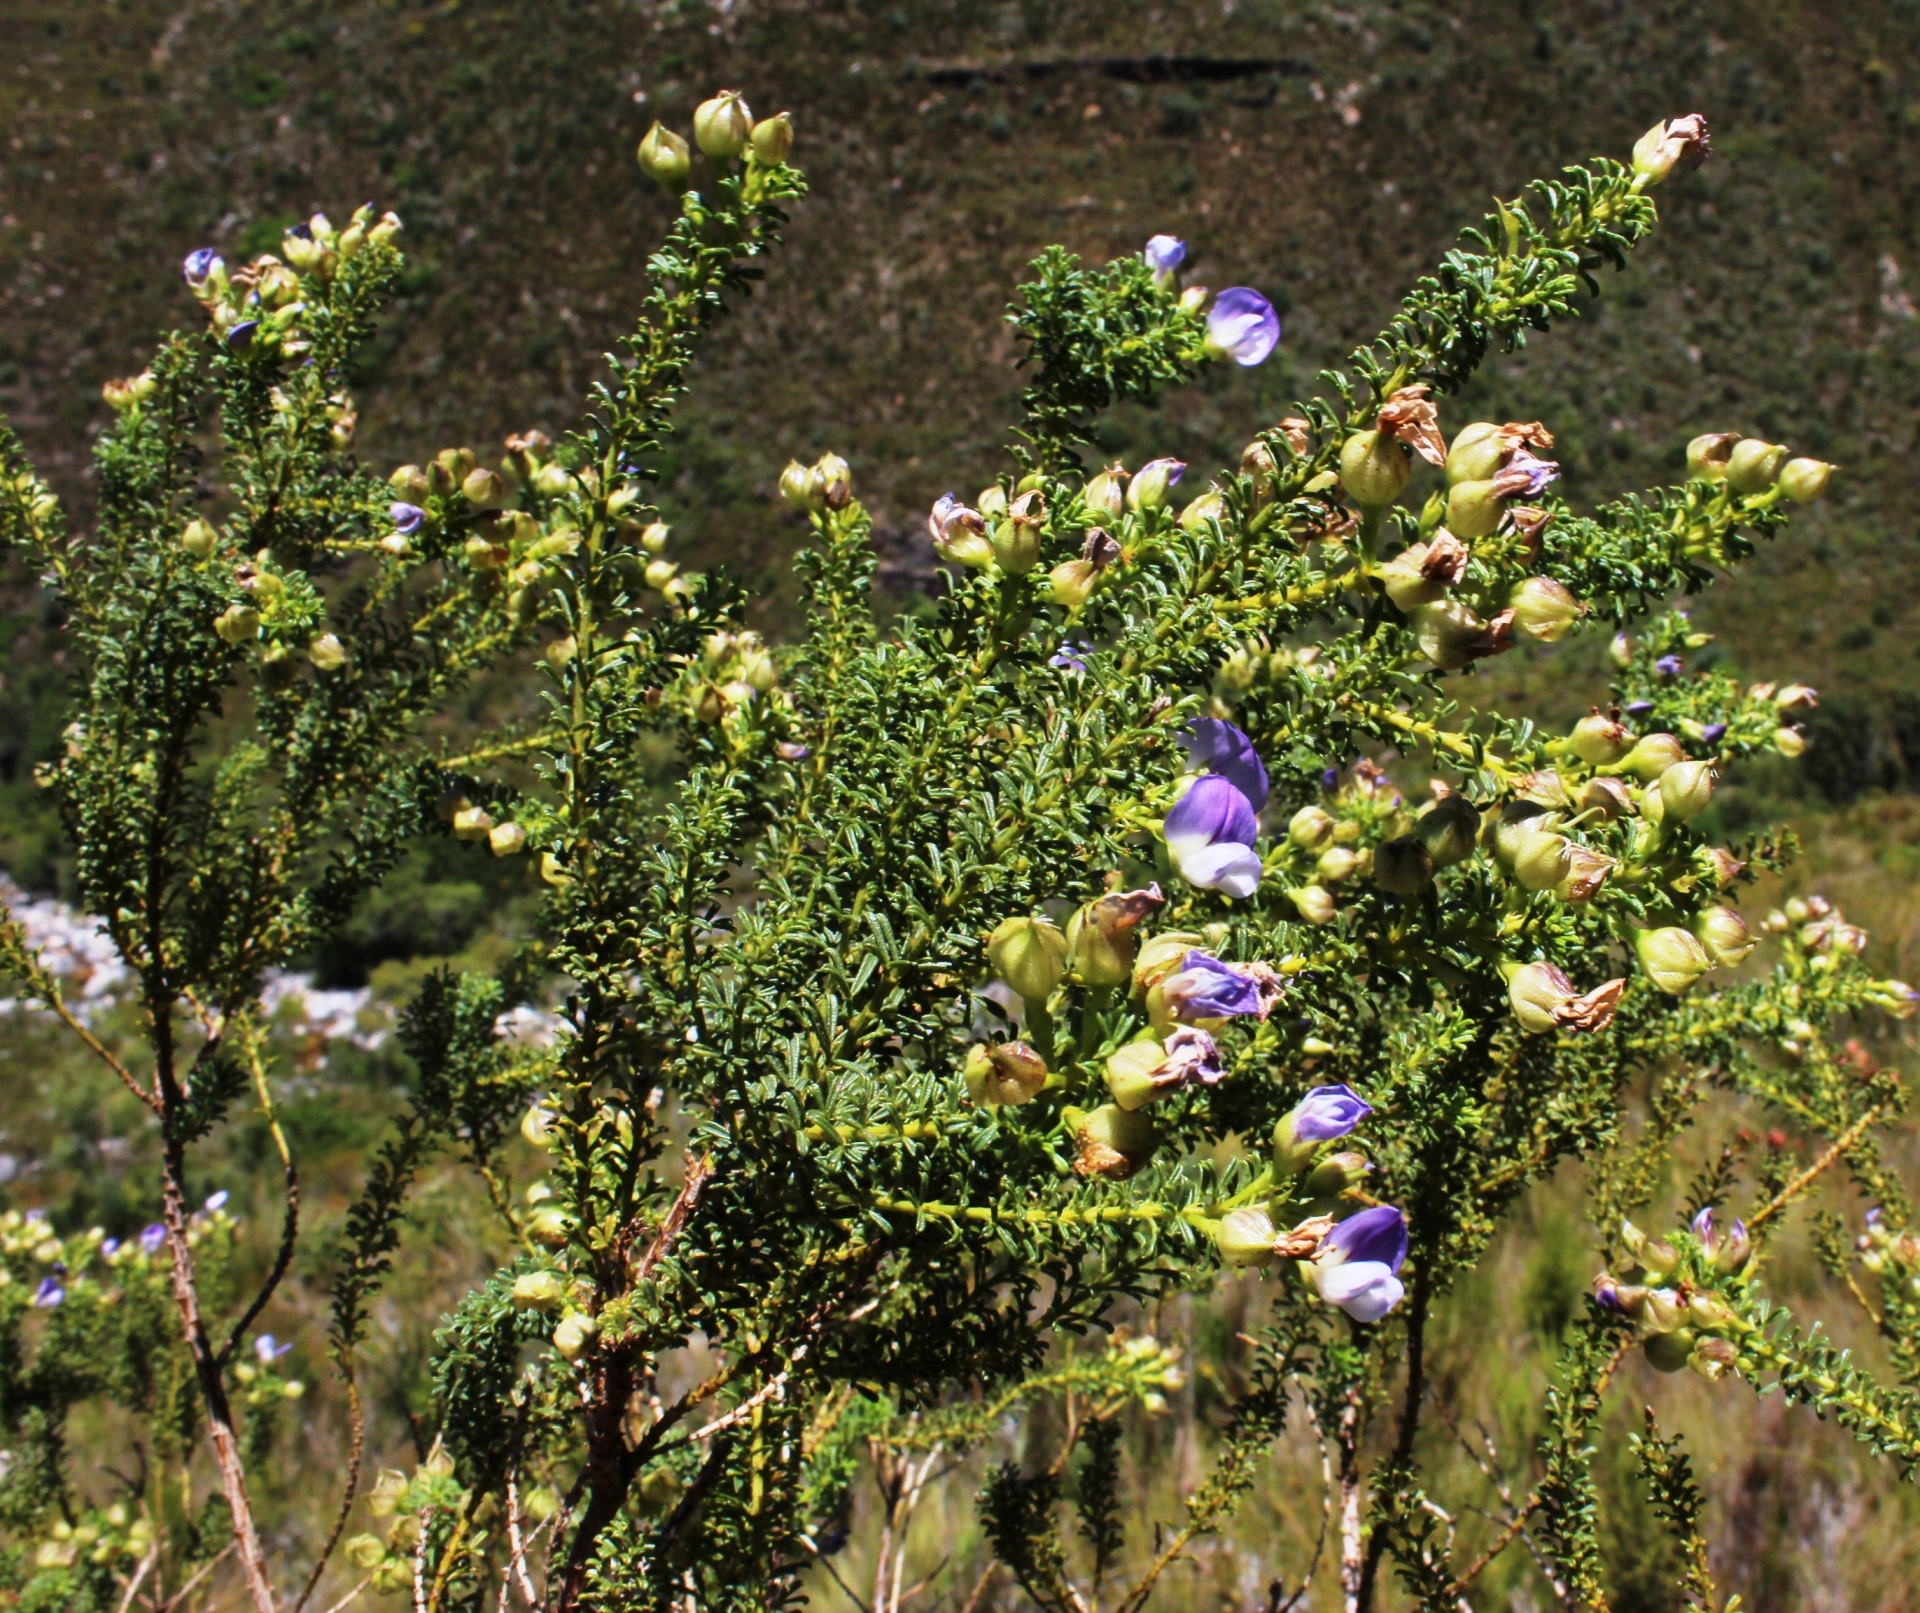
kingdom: Plantae
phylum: Tracheophyta
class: Magnoliopsida
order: Fabales
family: Fabaceae
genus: Psoralea
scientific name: Psoralea aculeata
